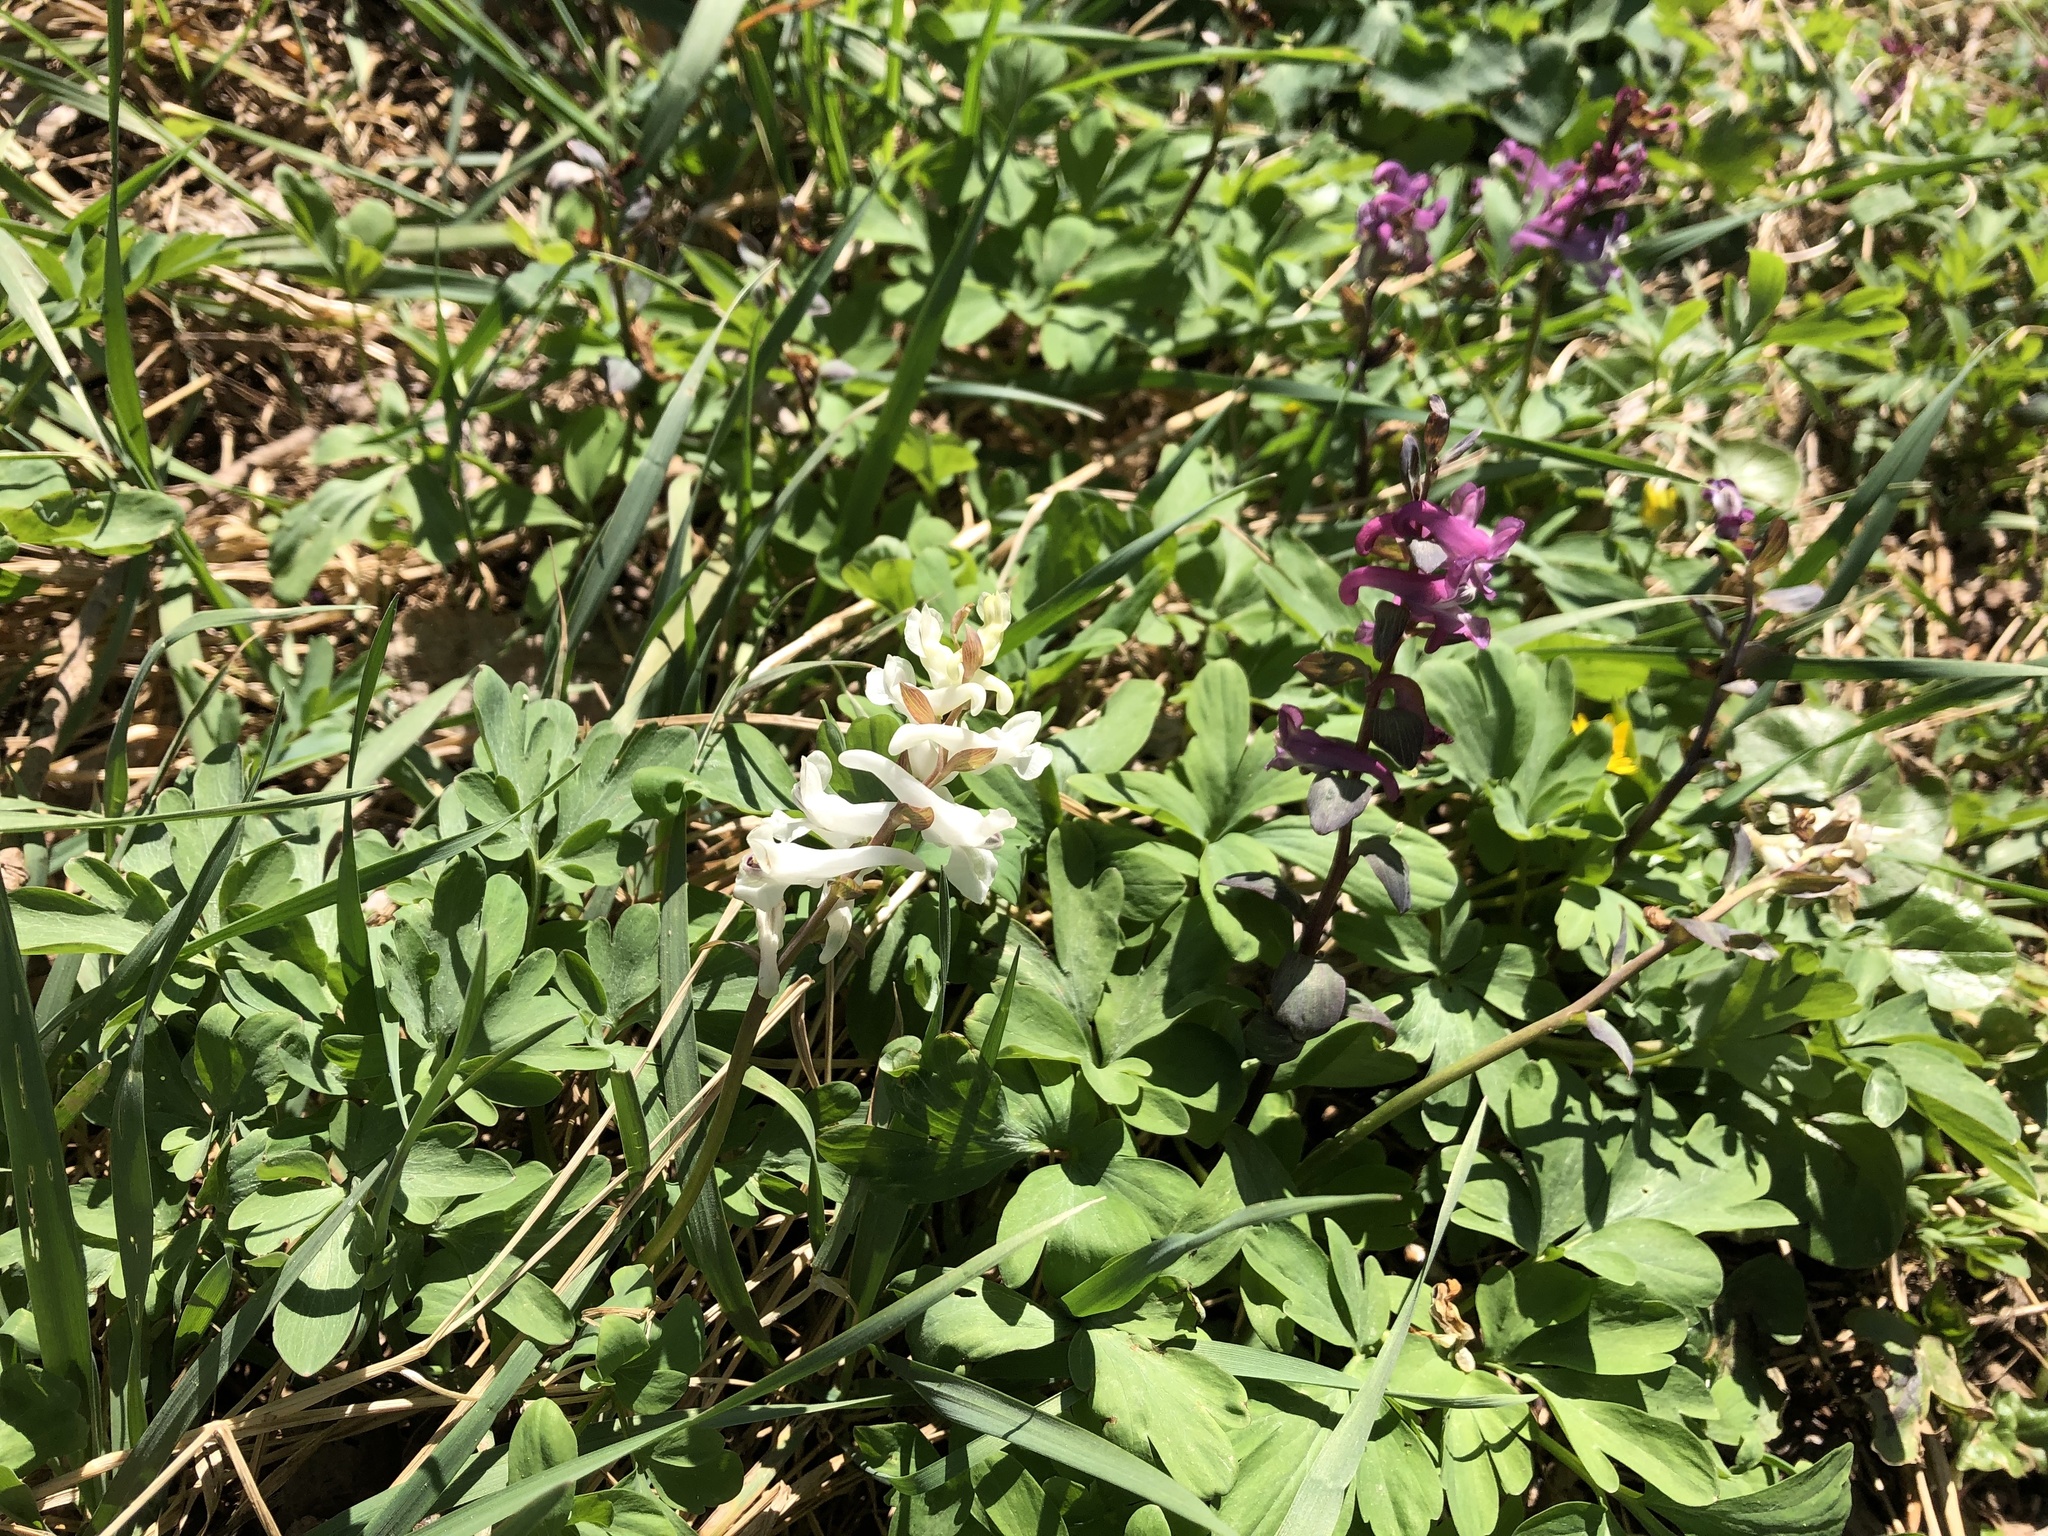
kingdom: Plantae
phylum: Tracheophyta
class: Magnoliopsida
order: Ranunculales
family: Papaveraceae
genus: Corydalis
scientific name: Corydalis cava
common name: Hollowroot
